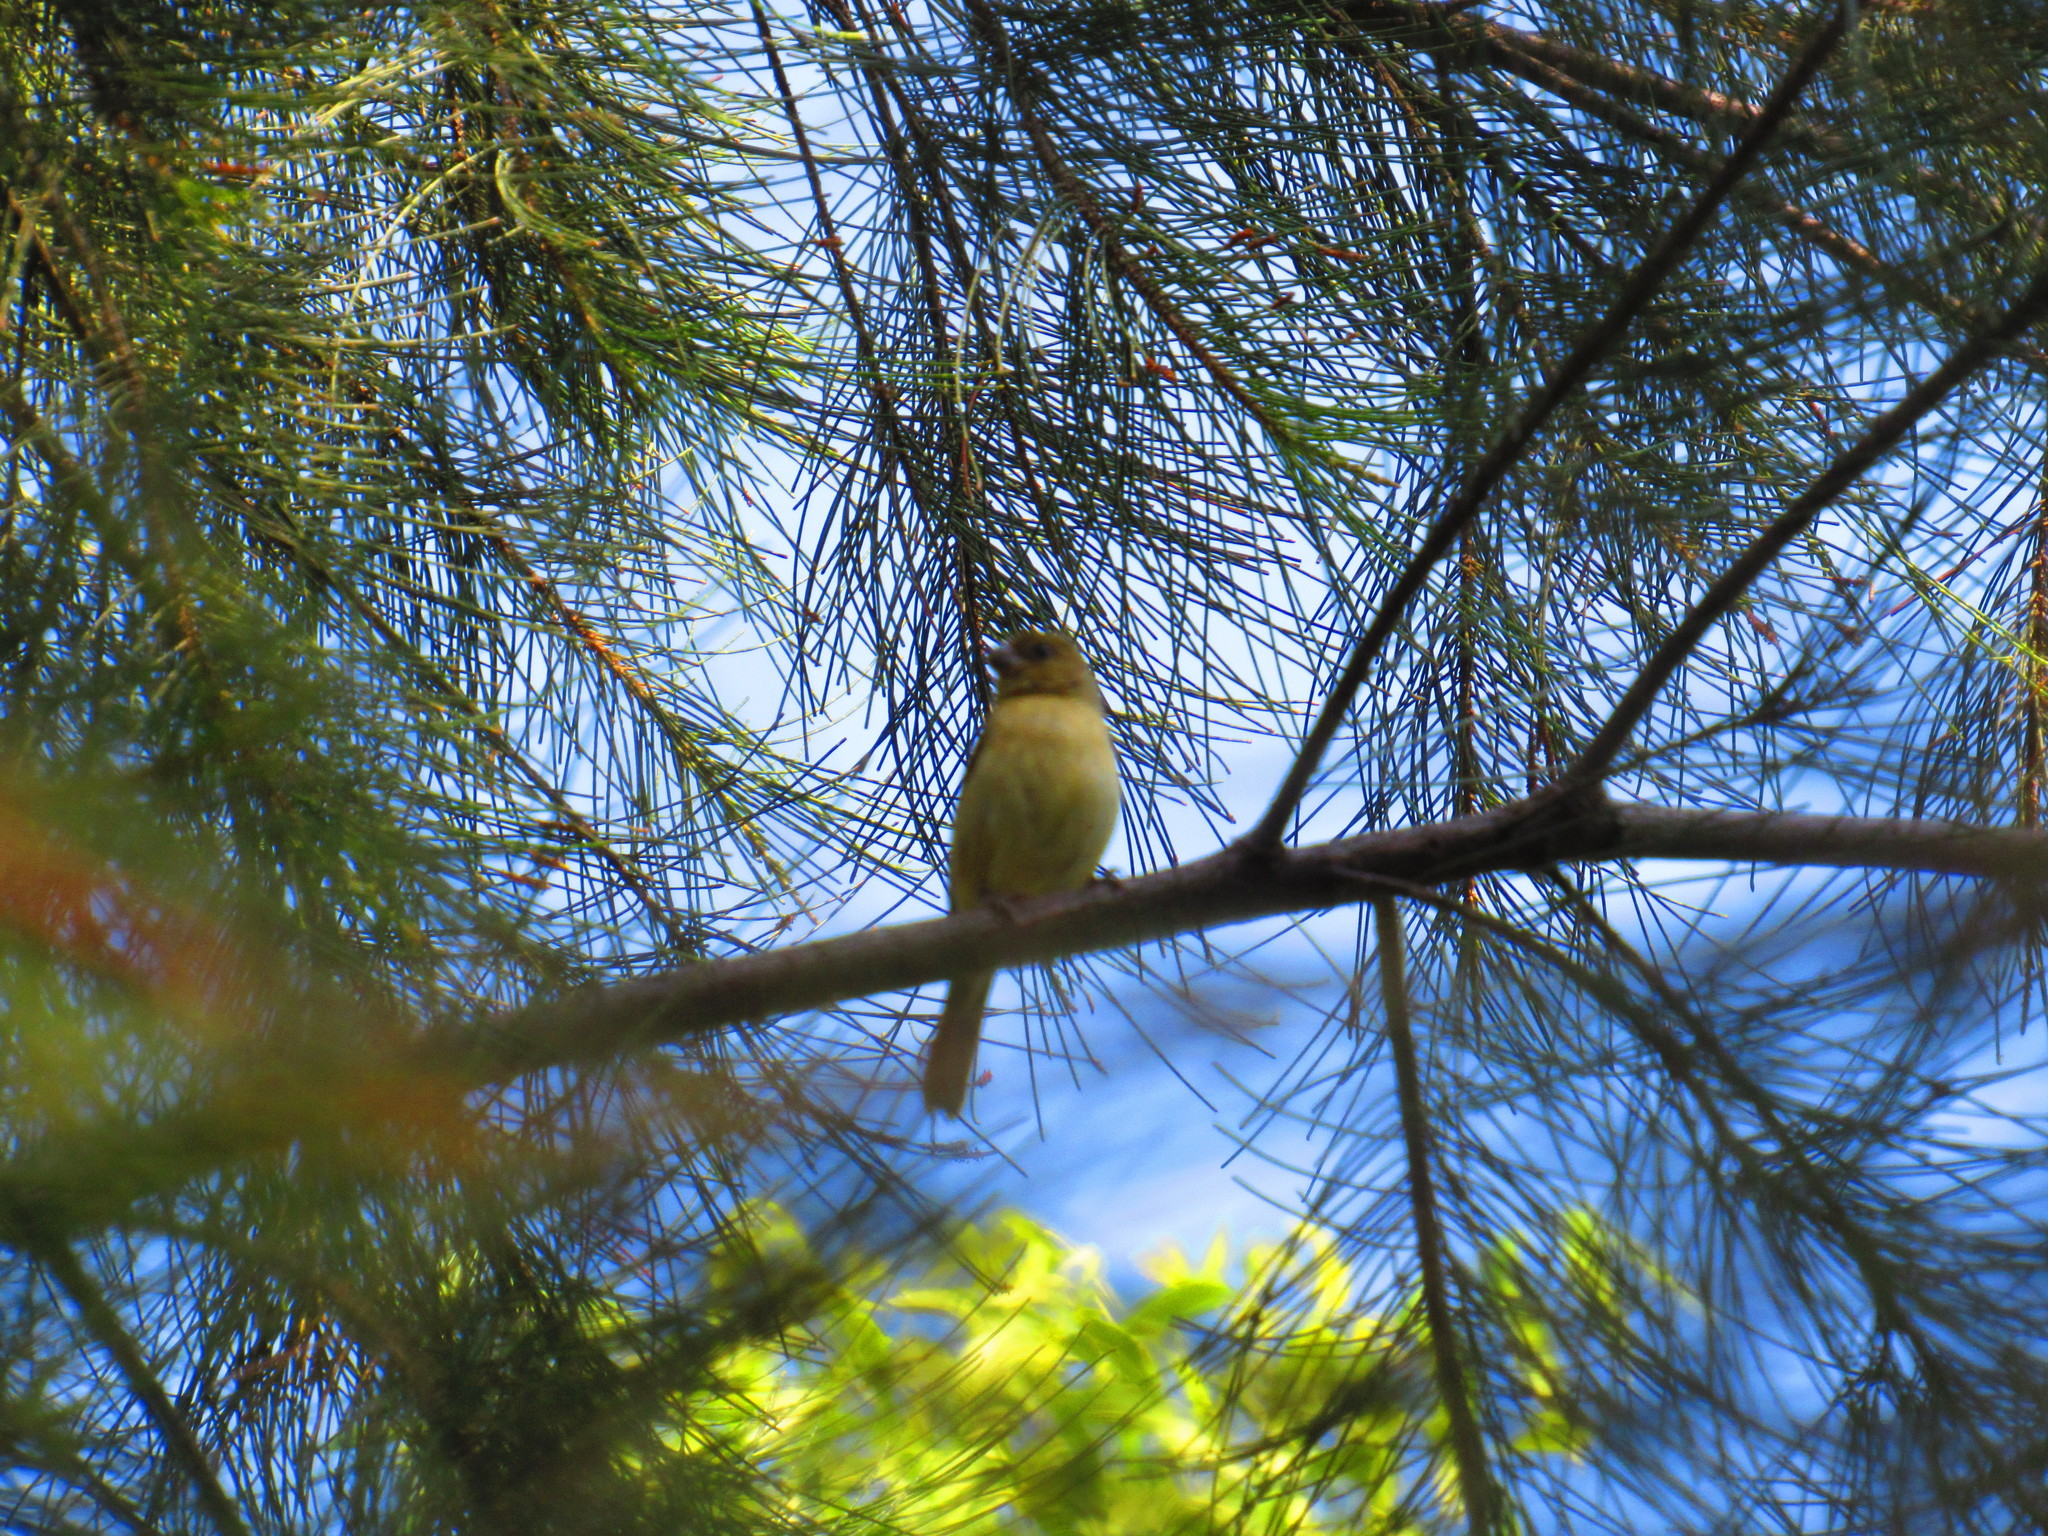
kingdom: Animalia
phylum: Chordata
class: Aves
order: Passeriformes
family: Thraupidae
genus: Sporophila
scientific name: Sporophila torqueola
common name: White-collared seedeater
